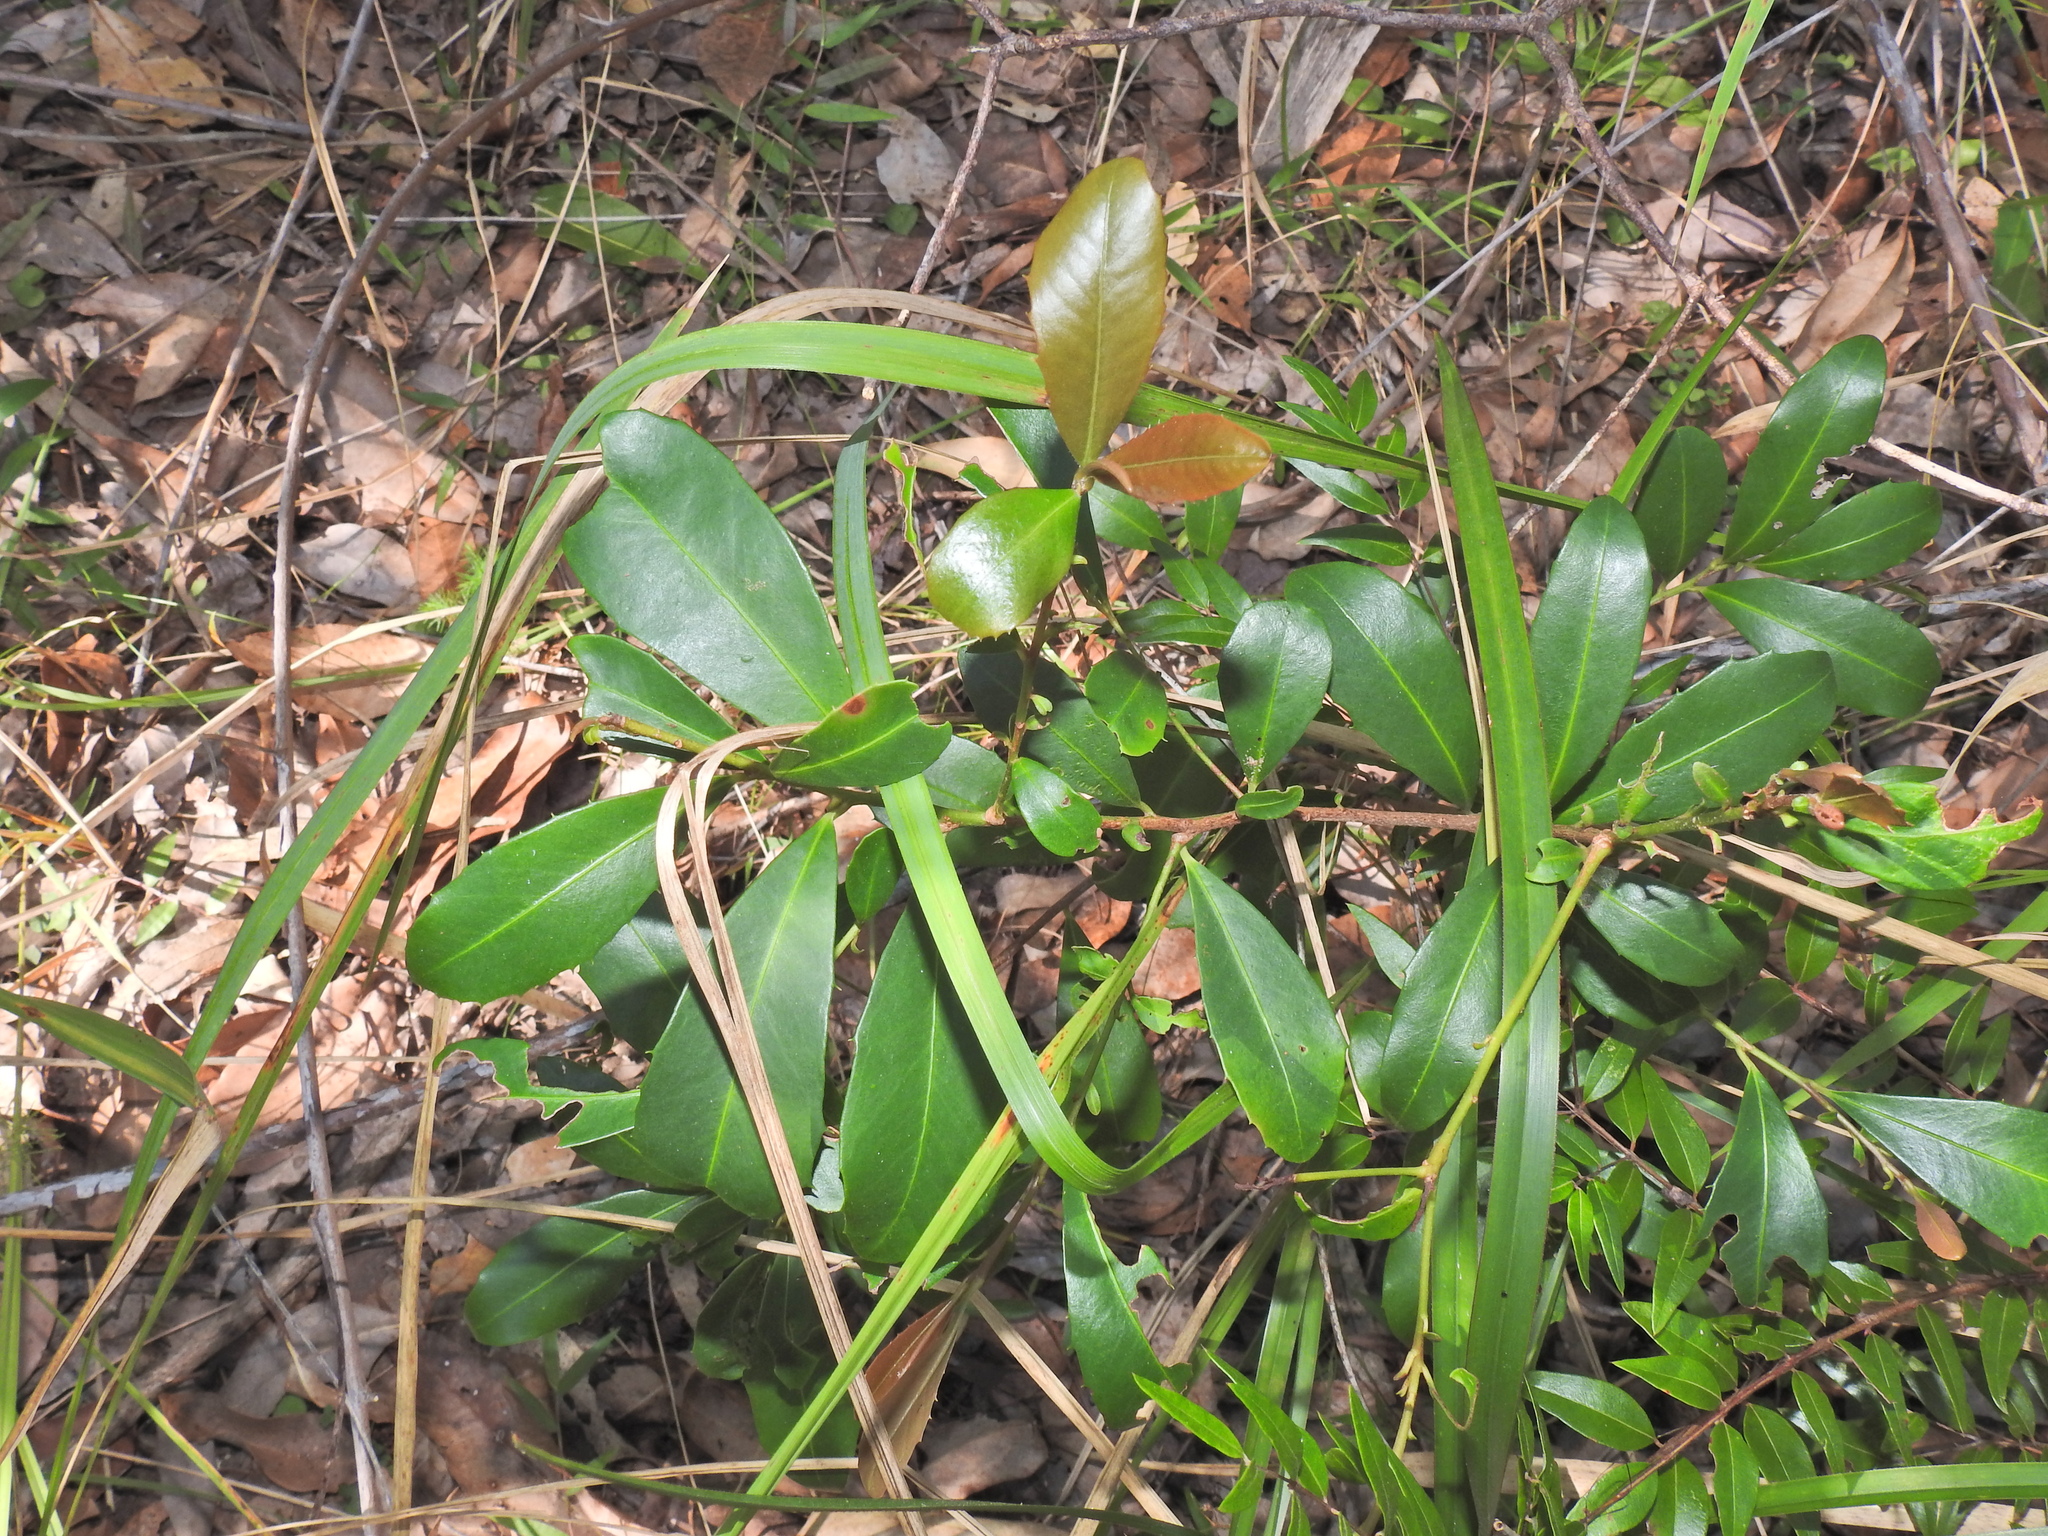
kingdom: Plantae
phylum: Tracheophyta
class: Magnoliopsida
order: Ericales
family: Primulaceae
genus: Myrsine
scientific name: Myrsine variabilis
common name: Brush muttonwood
